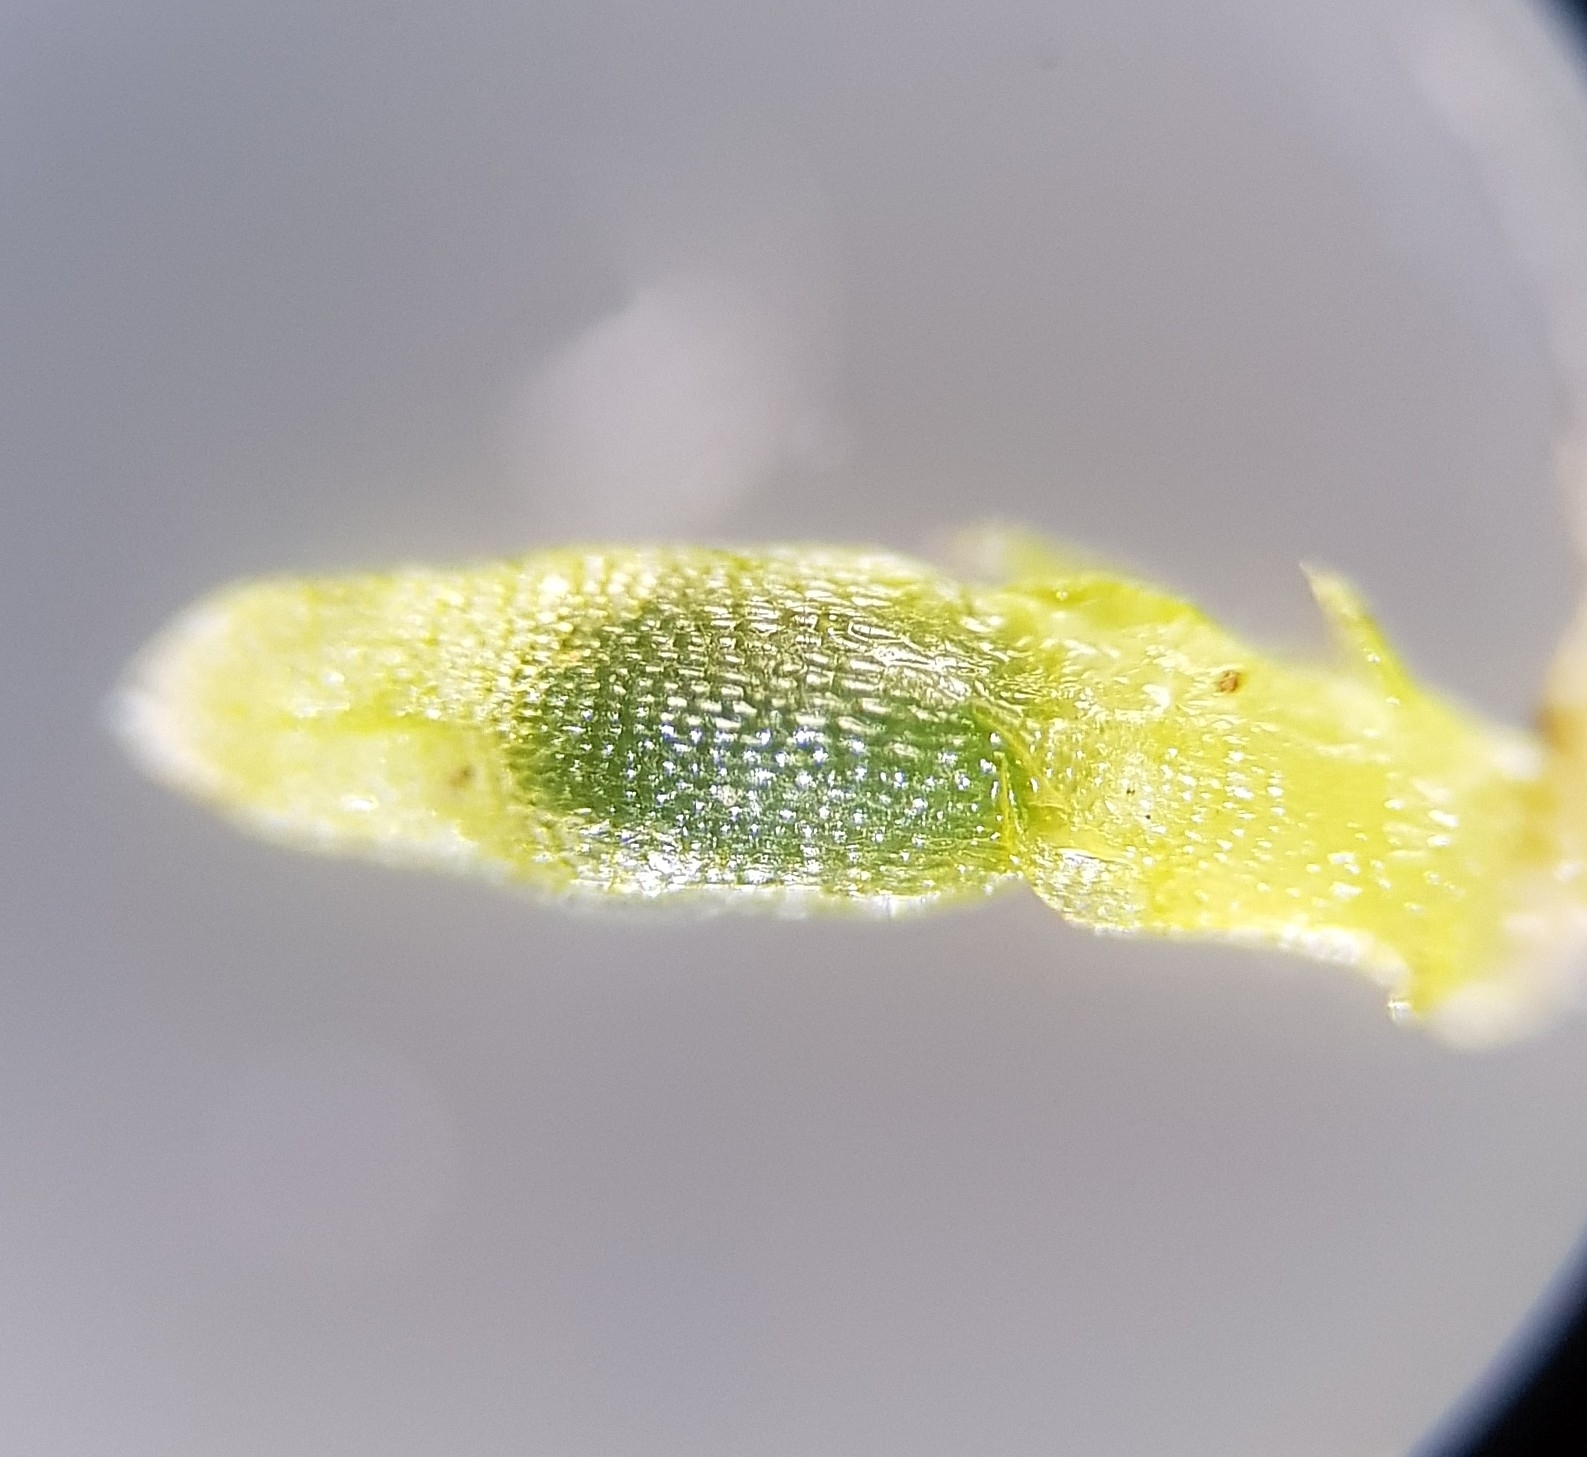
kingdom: Plantae
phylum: Marchantiophyta
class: Jungermanniopsida
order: Jungermanniales
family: Cephaloziaceae
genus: Cephalozia
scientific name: Cephalozia bicuspidata
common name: Two-horned pincerwort
